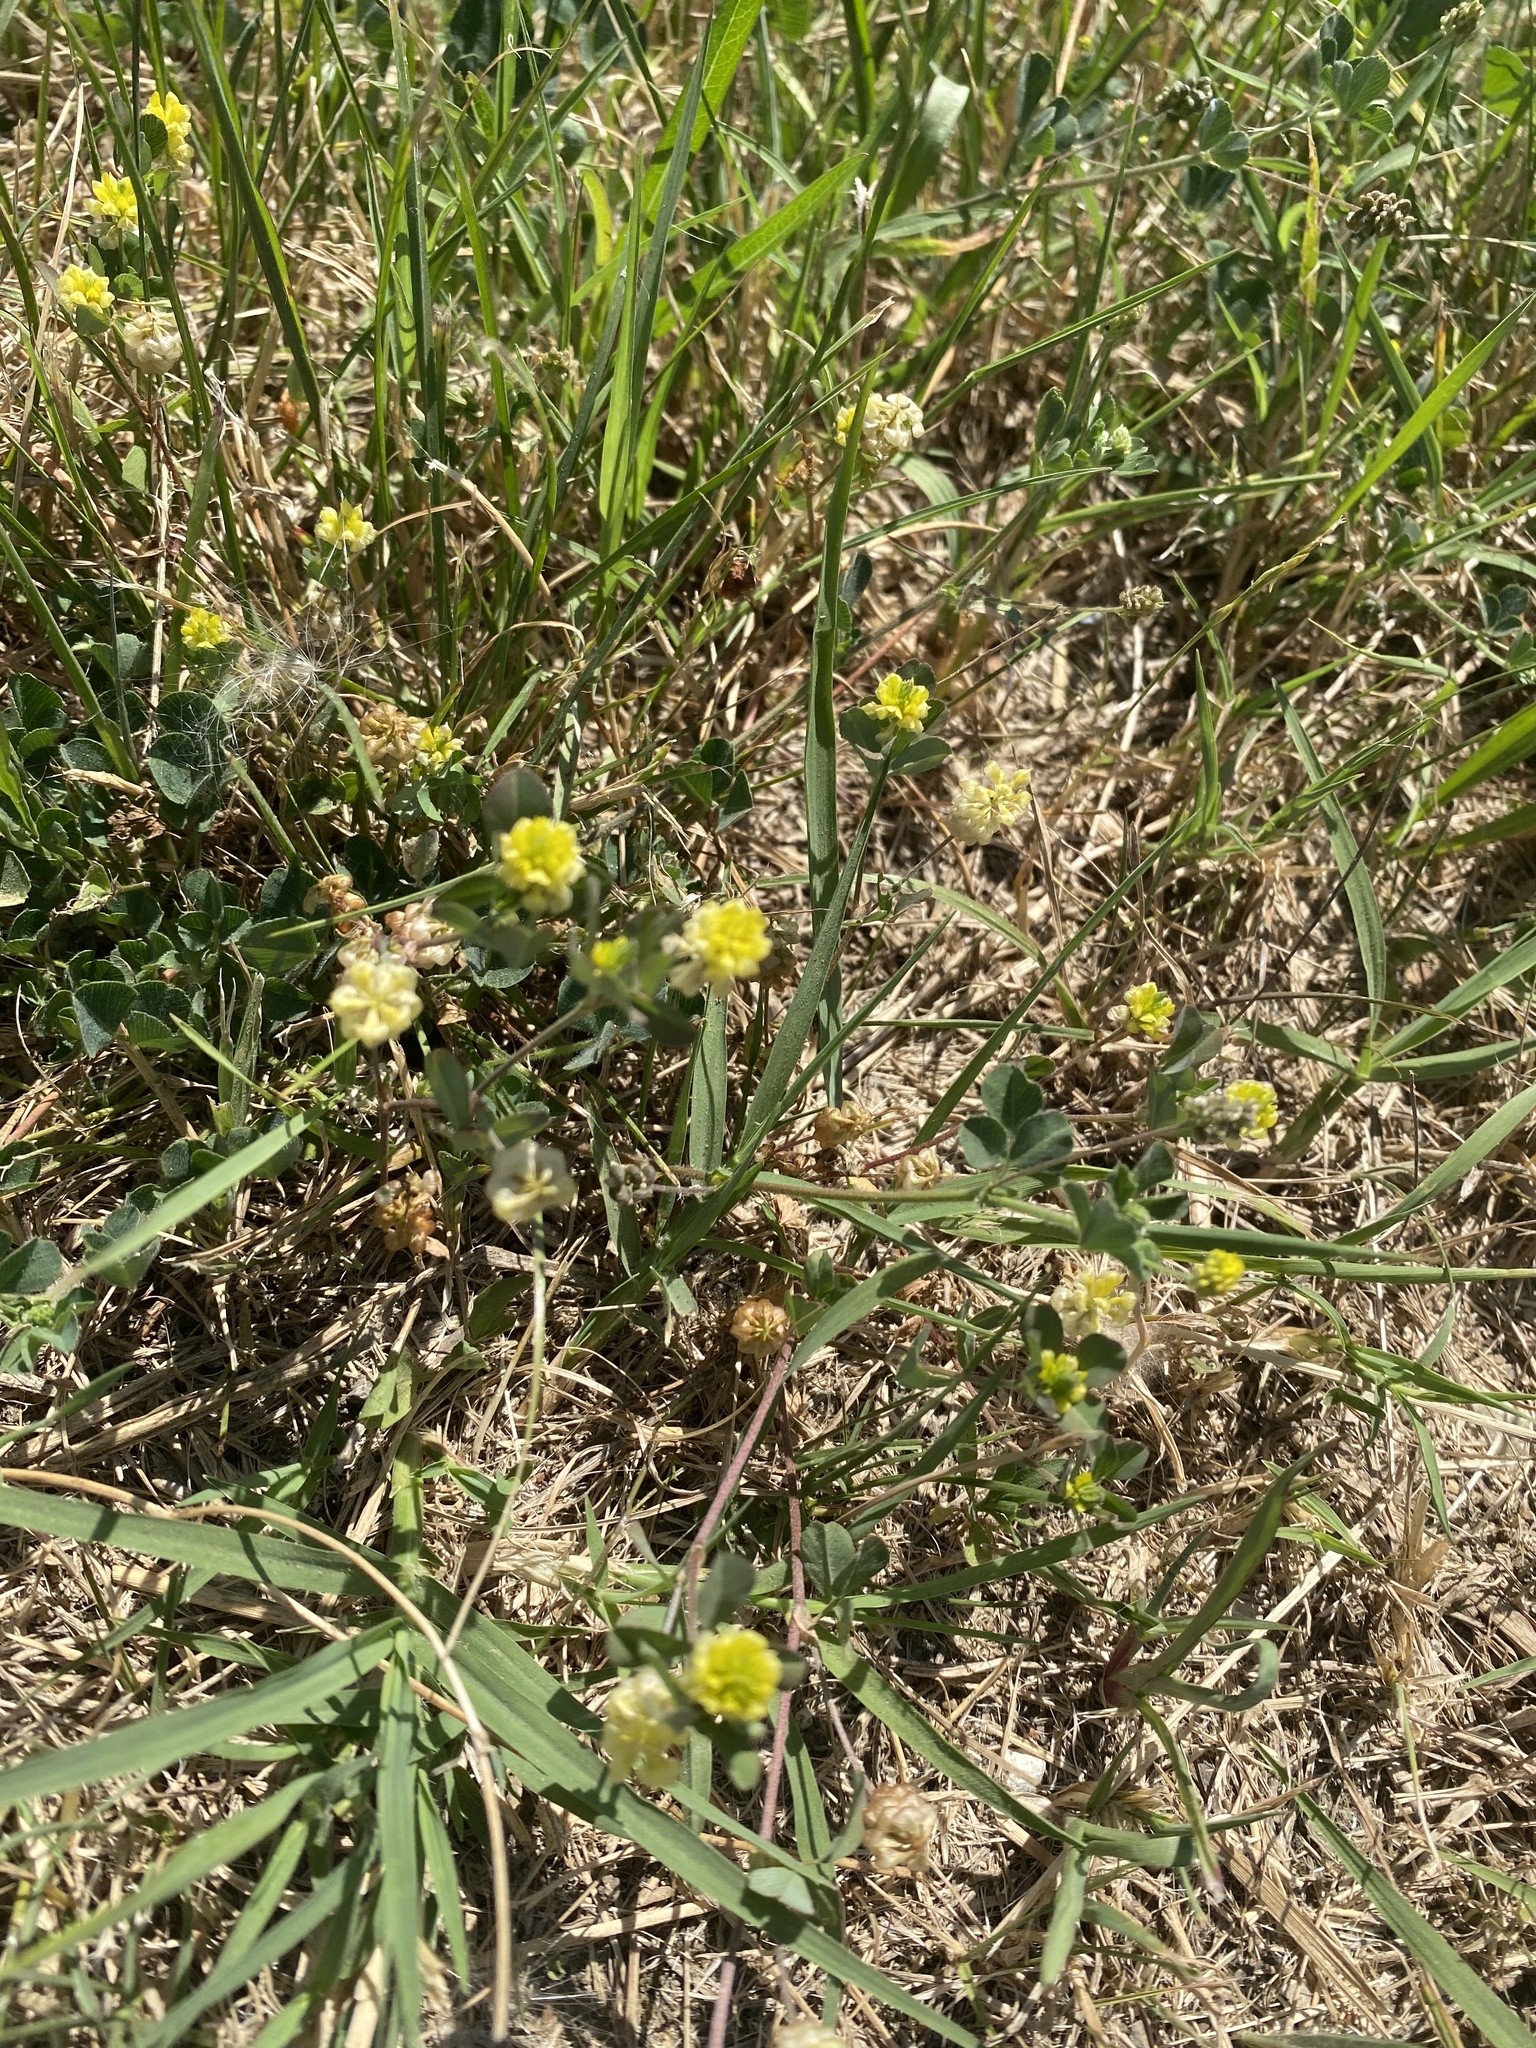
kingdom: Plantae
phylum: Tracheophyta
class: Magnoliopsida
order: Fabales
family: Fabaceae
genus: Trifolium
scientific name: Trifolium campestre
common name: Field clover
